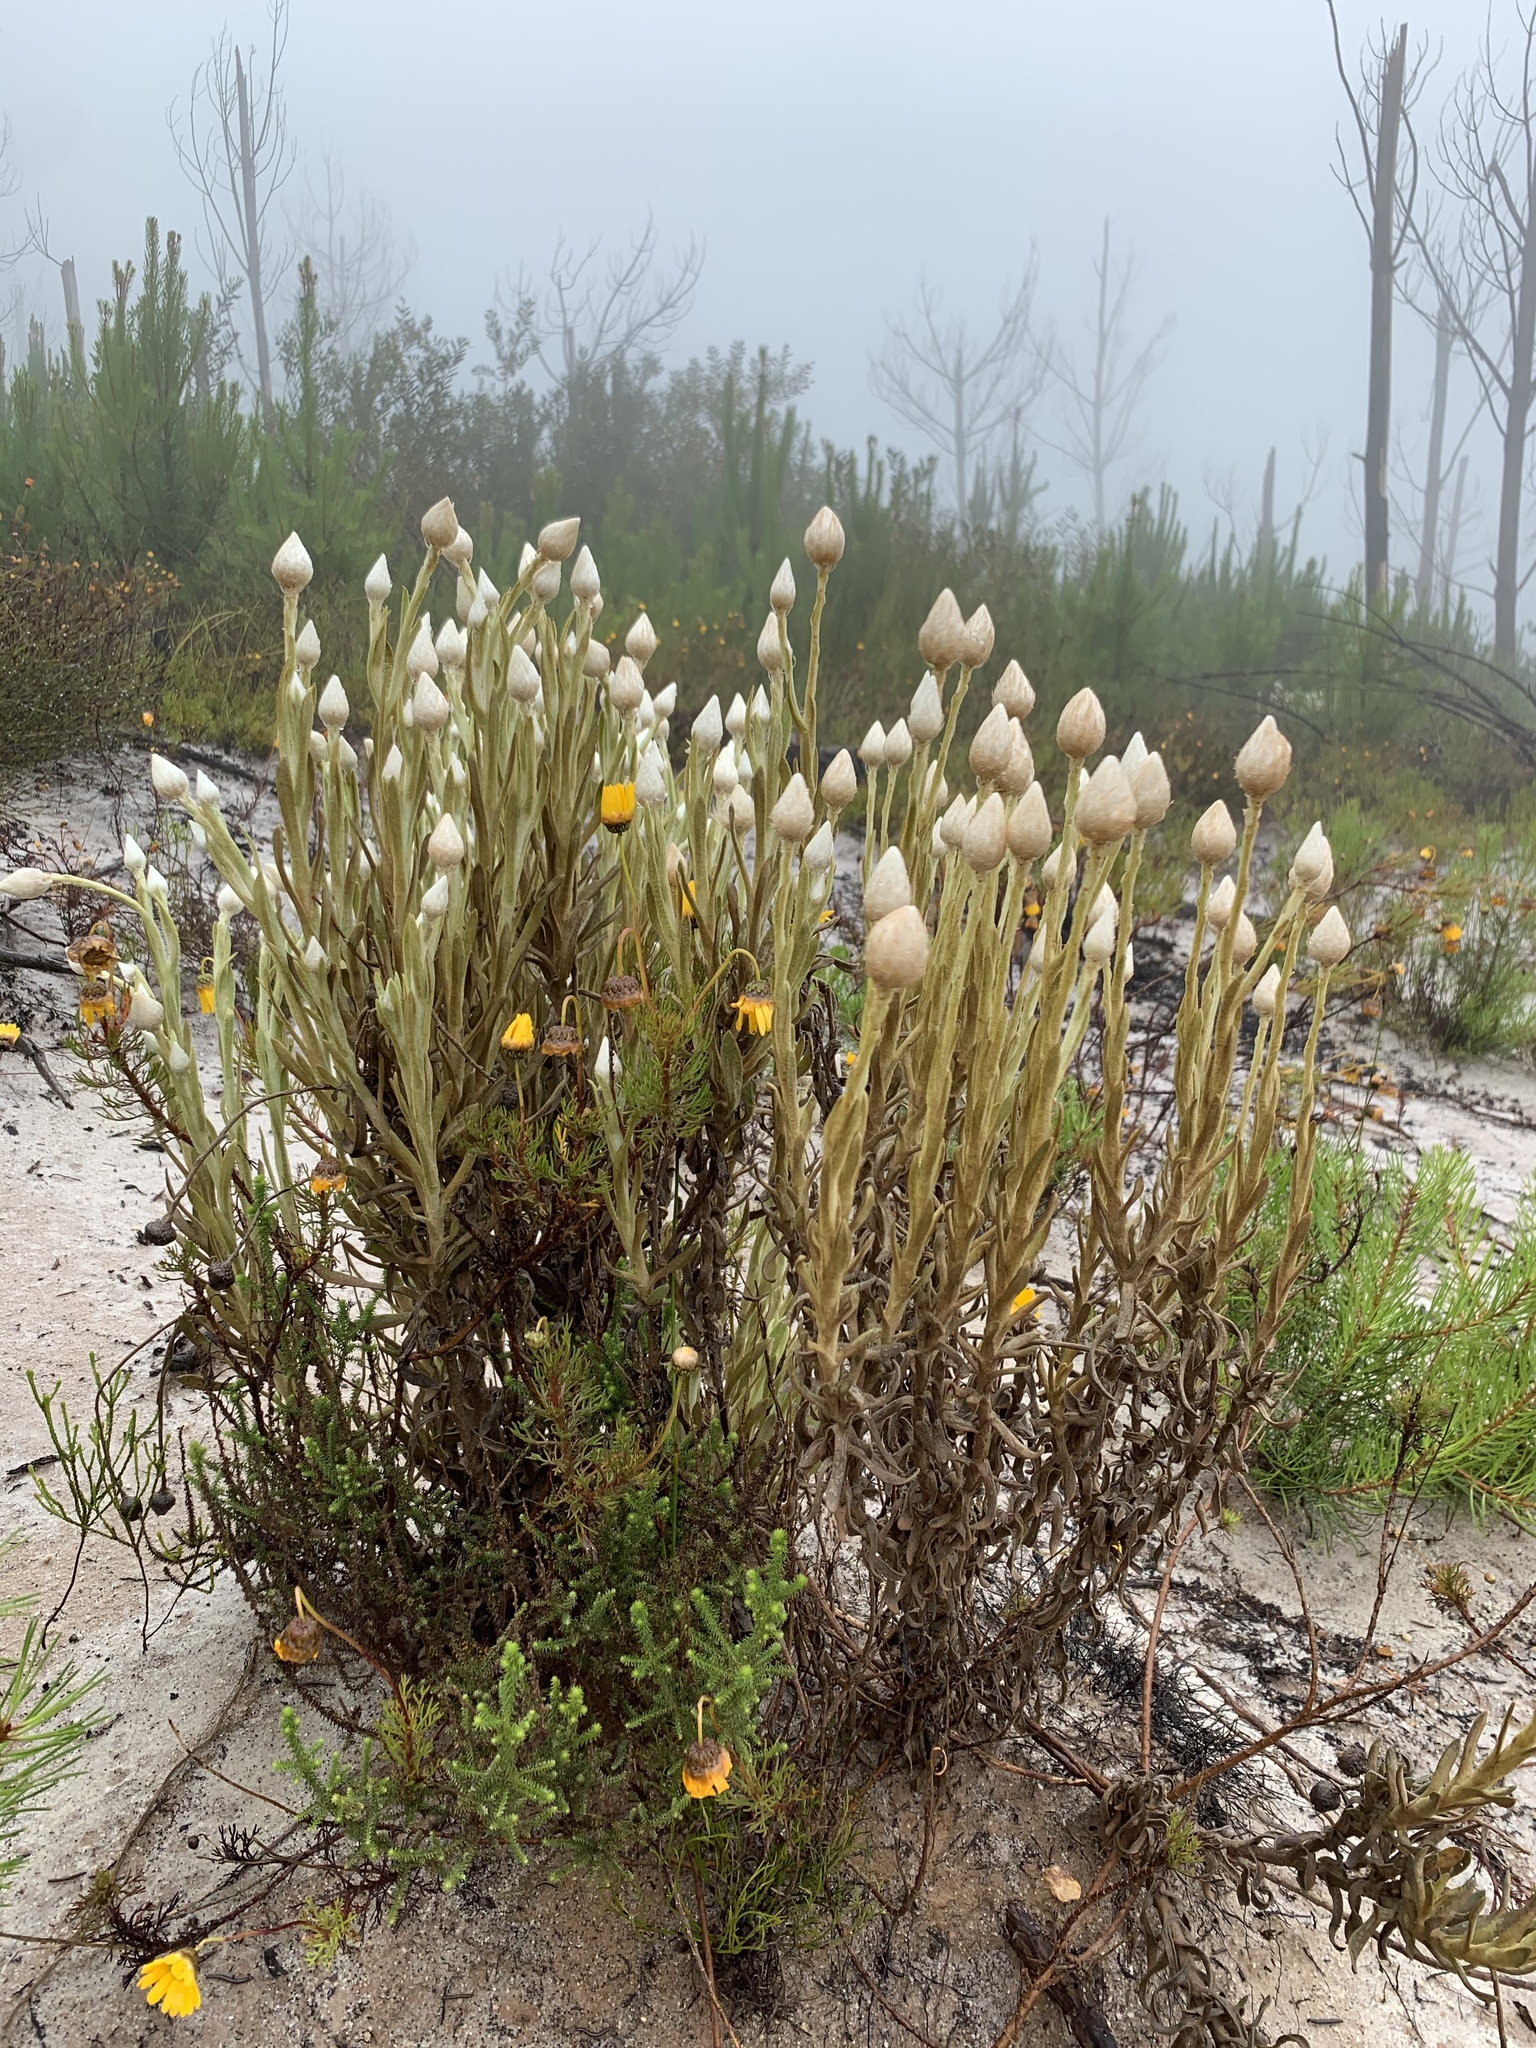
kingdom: Plantae
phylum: Tracheophyta
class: Magnoliopsida
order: Asterales
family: Asteraceae
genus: Syncarpha
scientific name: Syncarpha vestita
